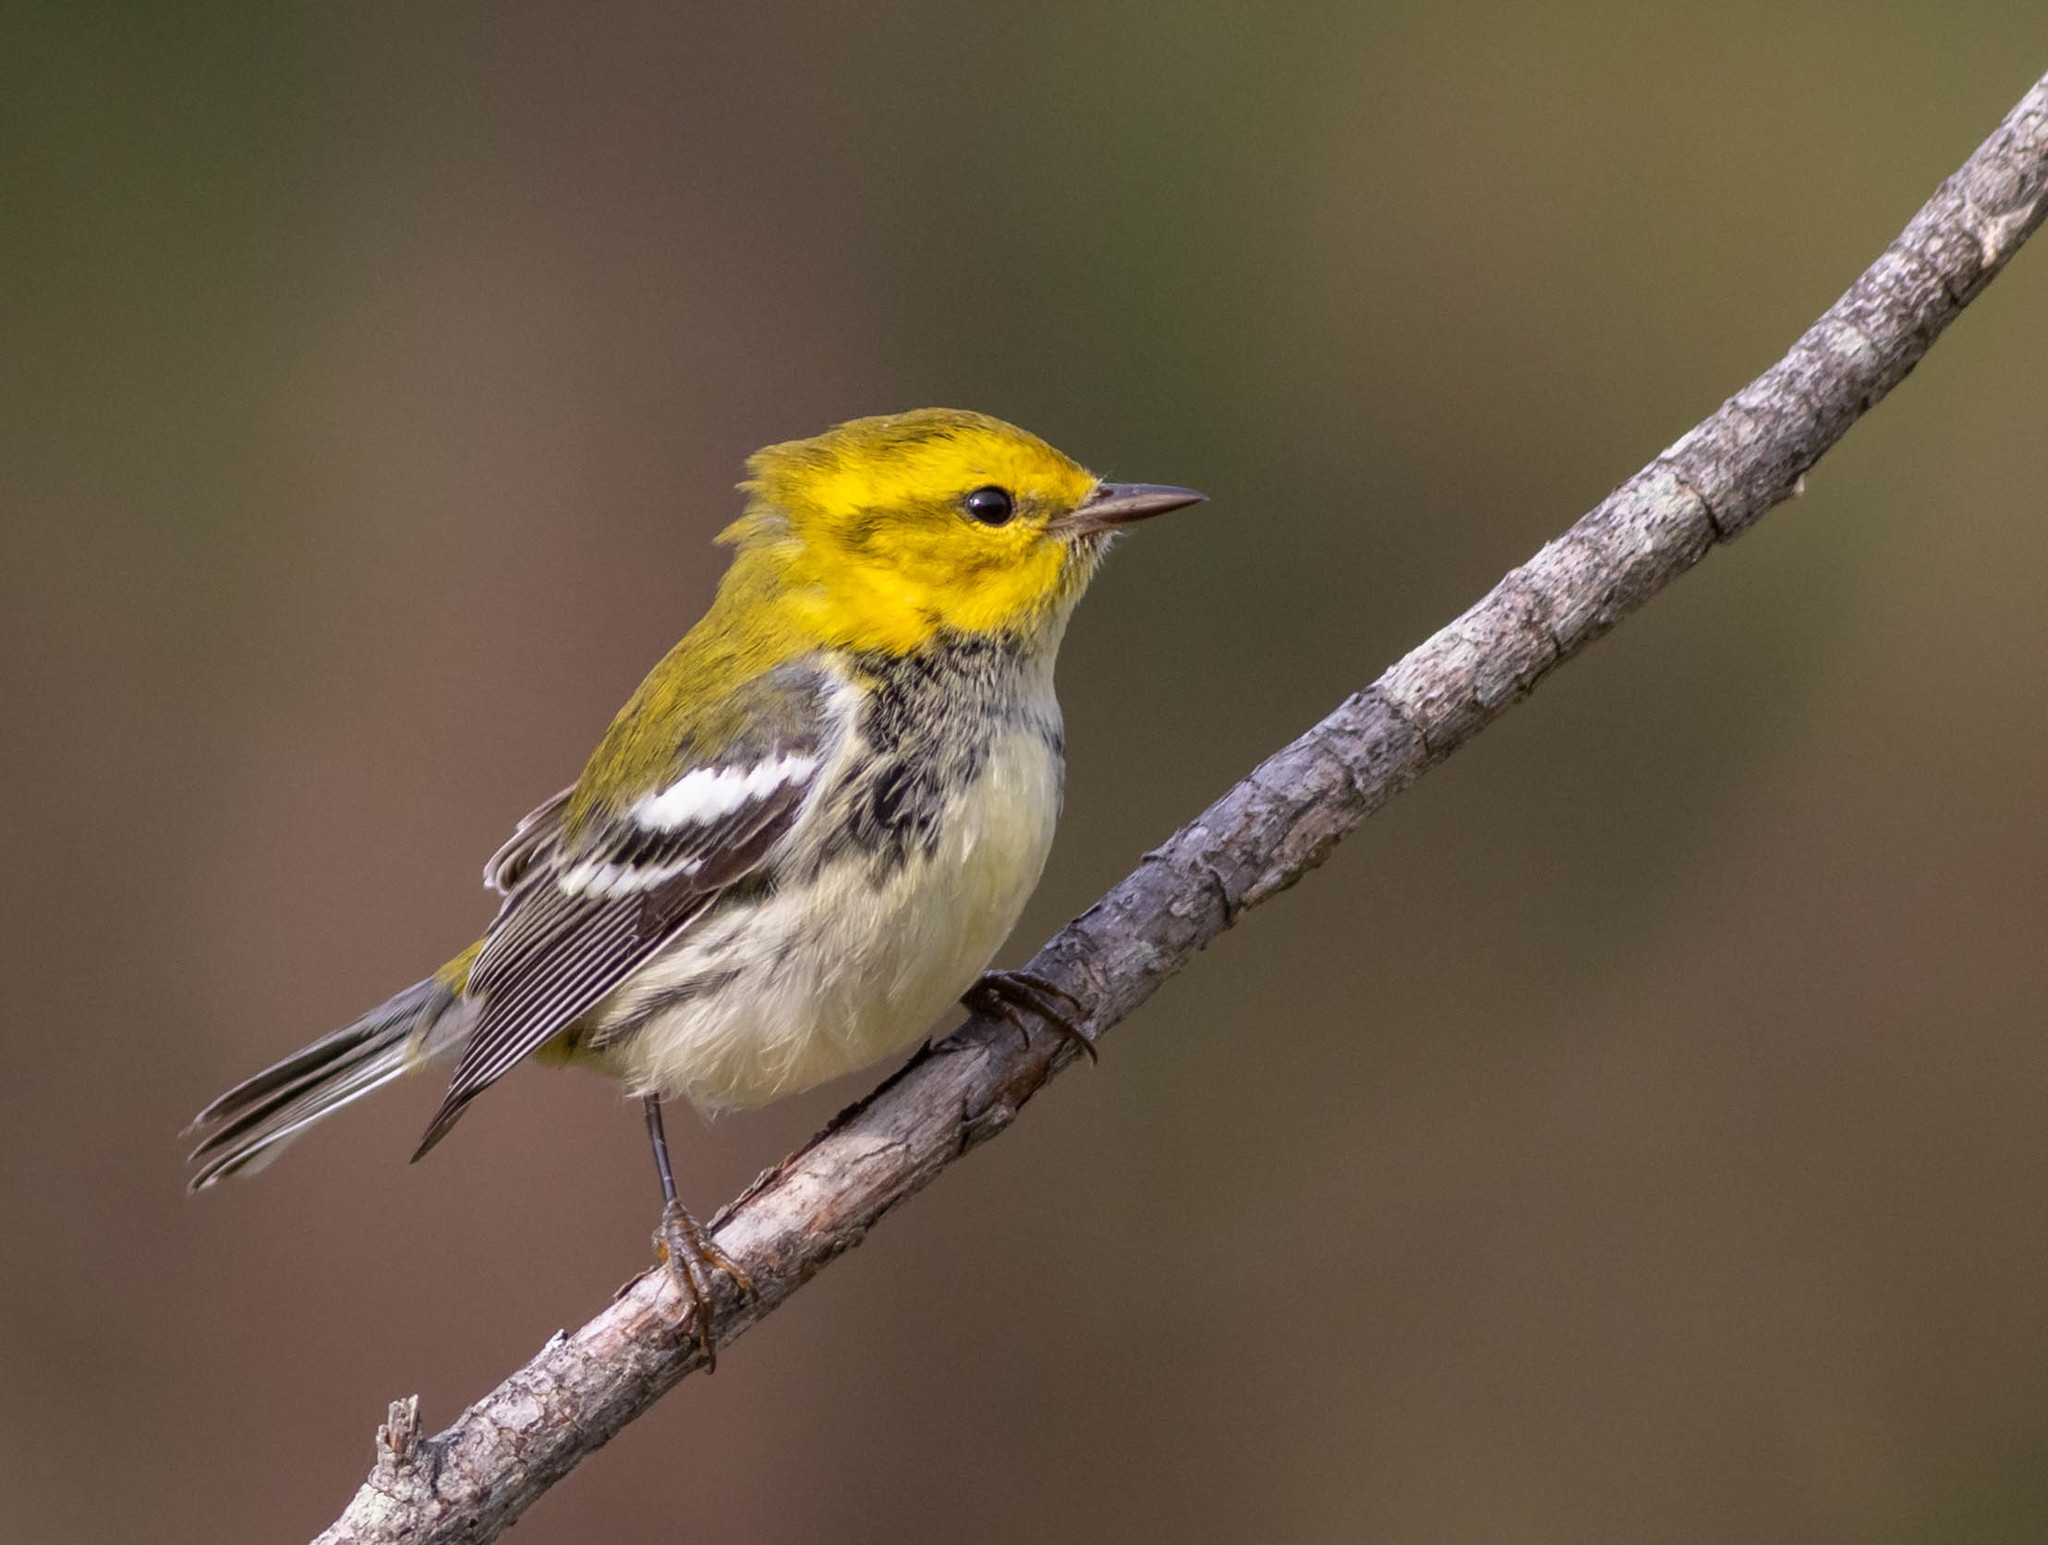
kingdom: Animalia
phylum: Chordata
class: Aves
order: Passeriformes
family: Parulidae
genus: Setophaga
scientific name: Setophaga virens
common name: Black-throated green warbler
